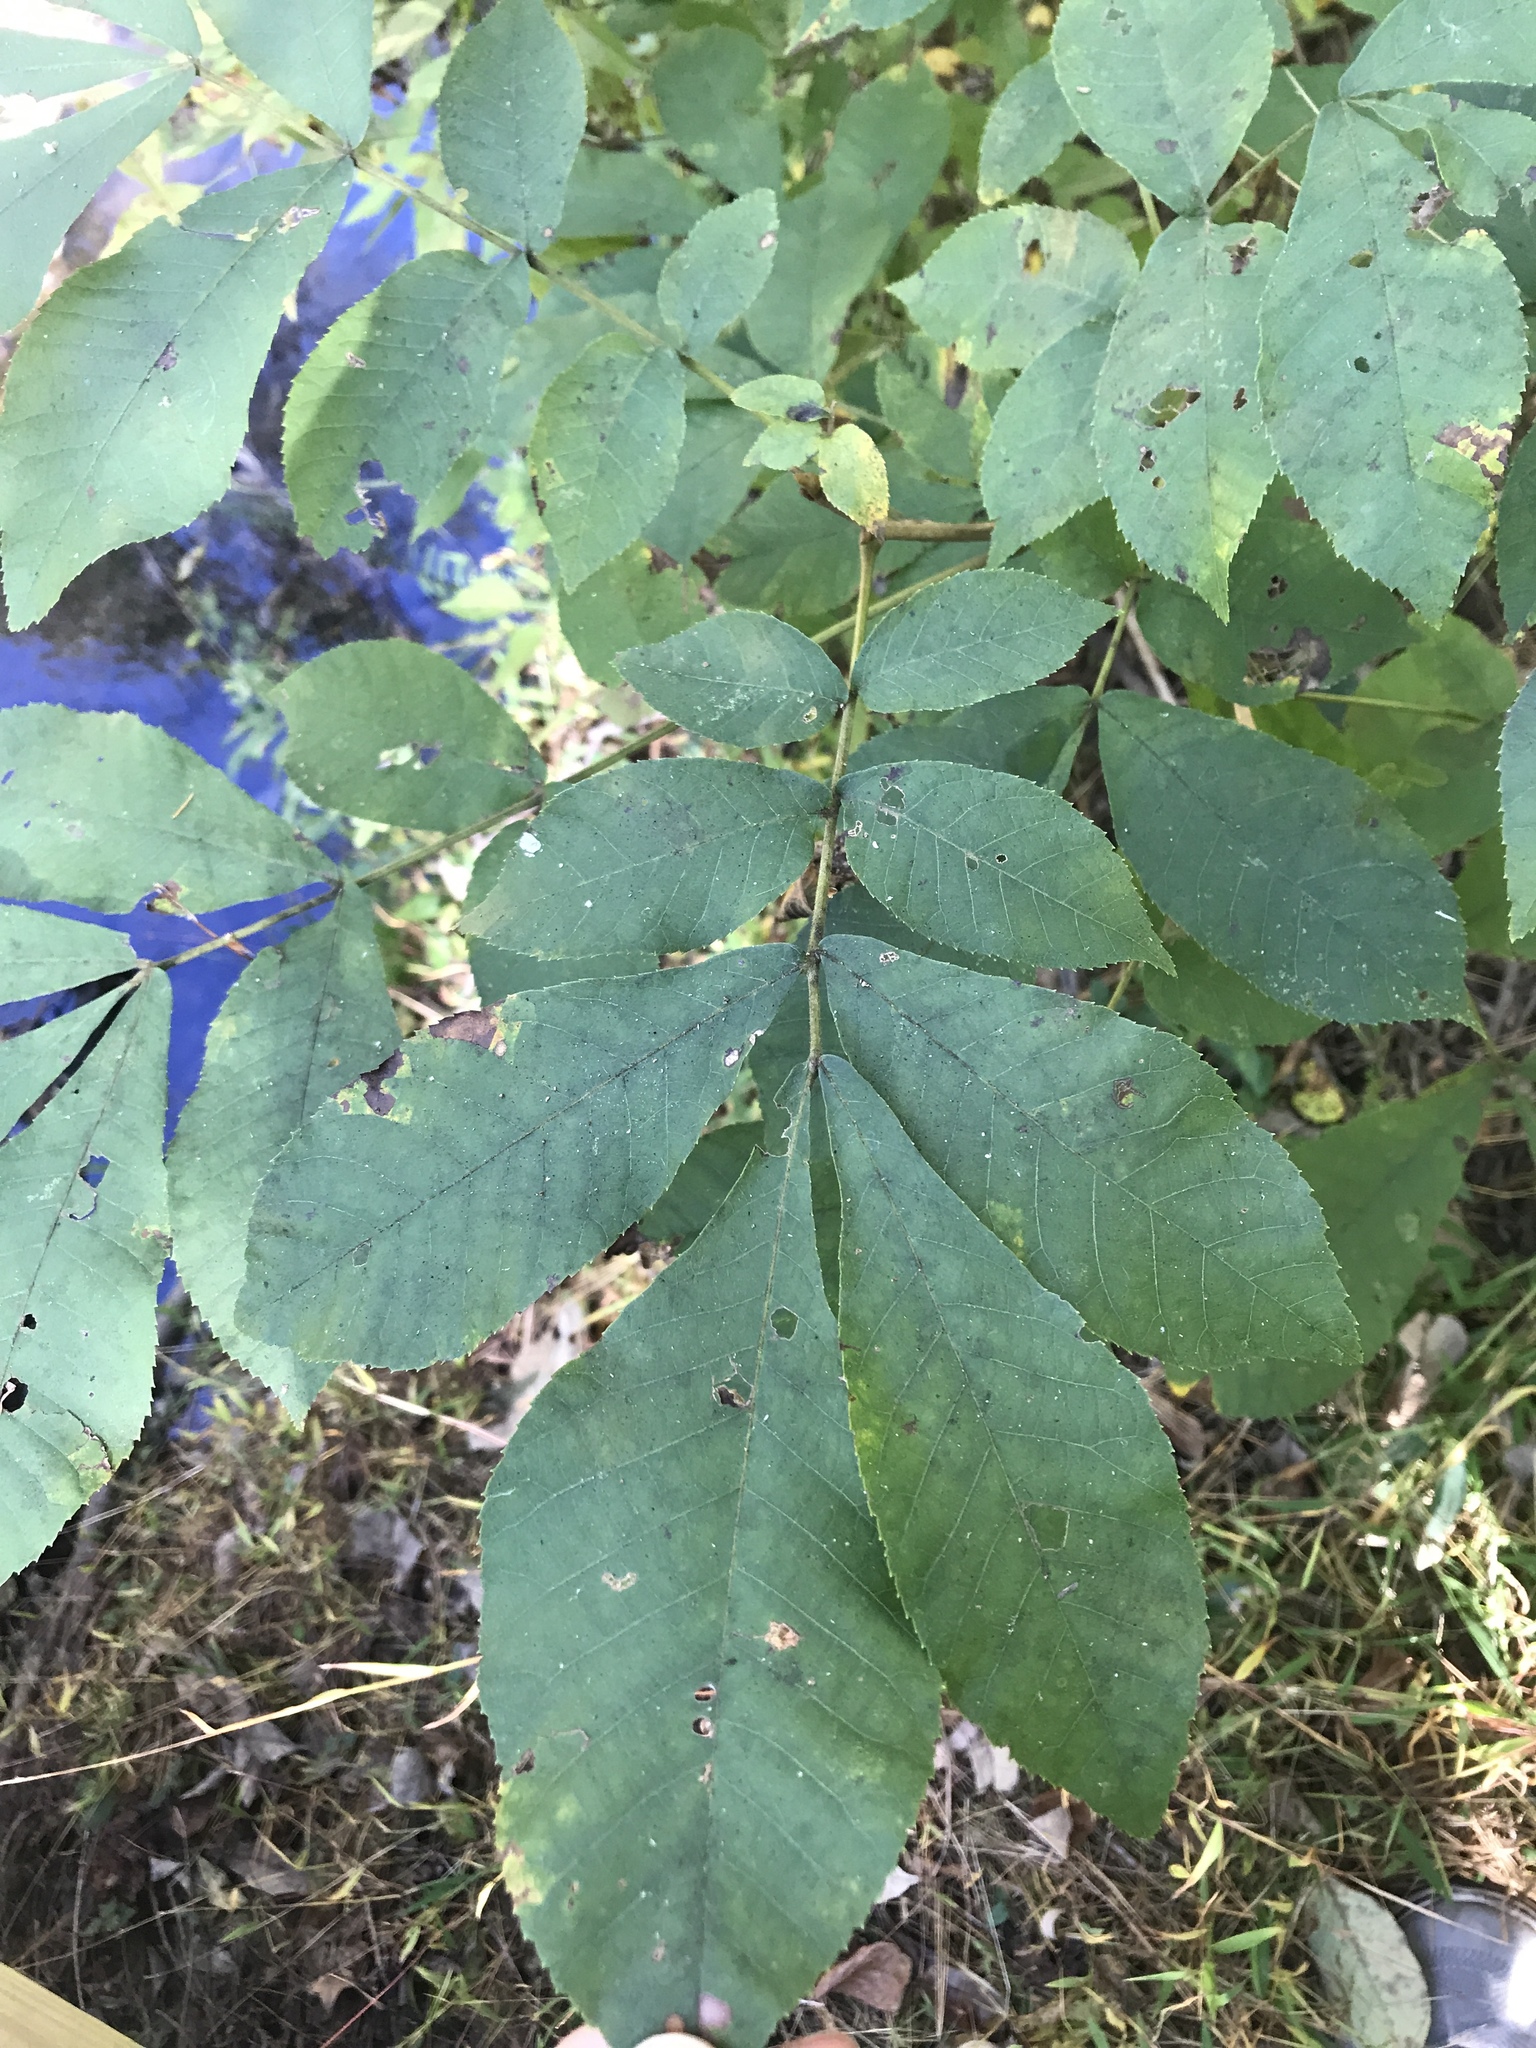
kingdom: Plantae
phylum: Tracheophyta
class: Magnoliopsida
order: Fagales
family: Juglandaceae
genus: Carya
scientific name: Carya cordiformis
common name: Bitternut hickory
